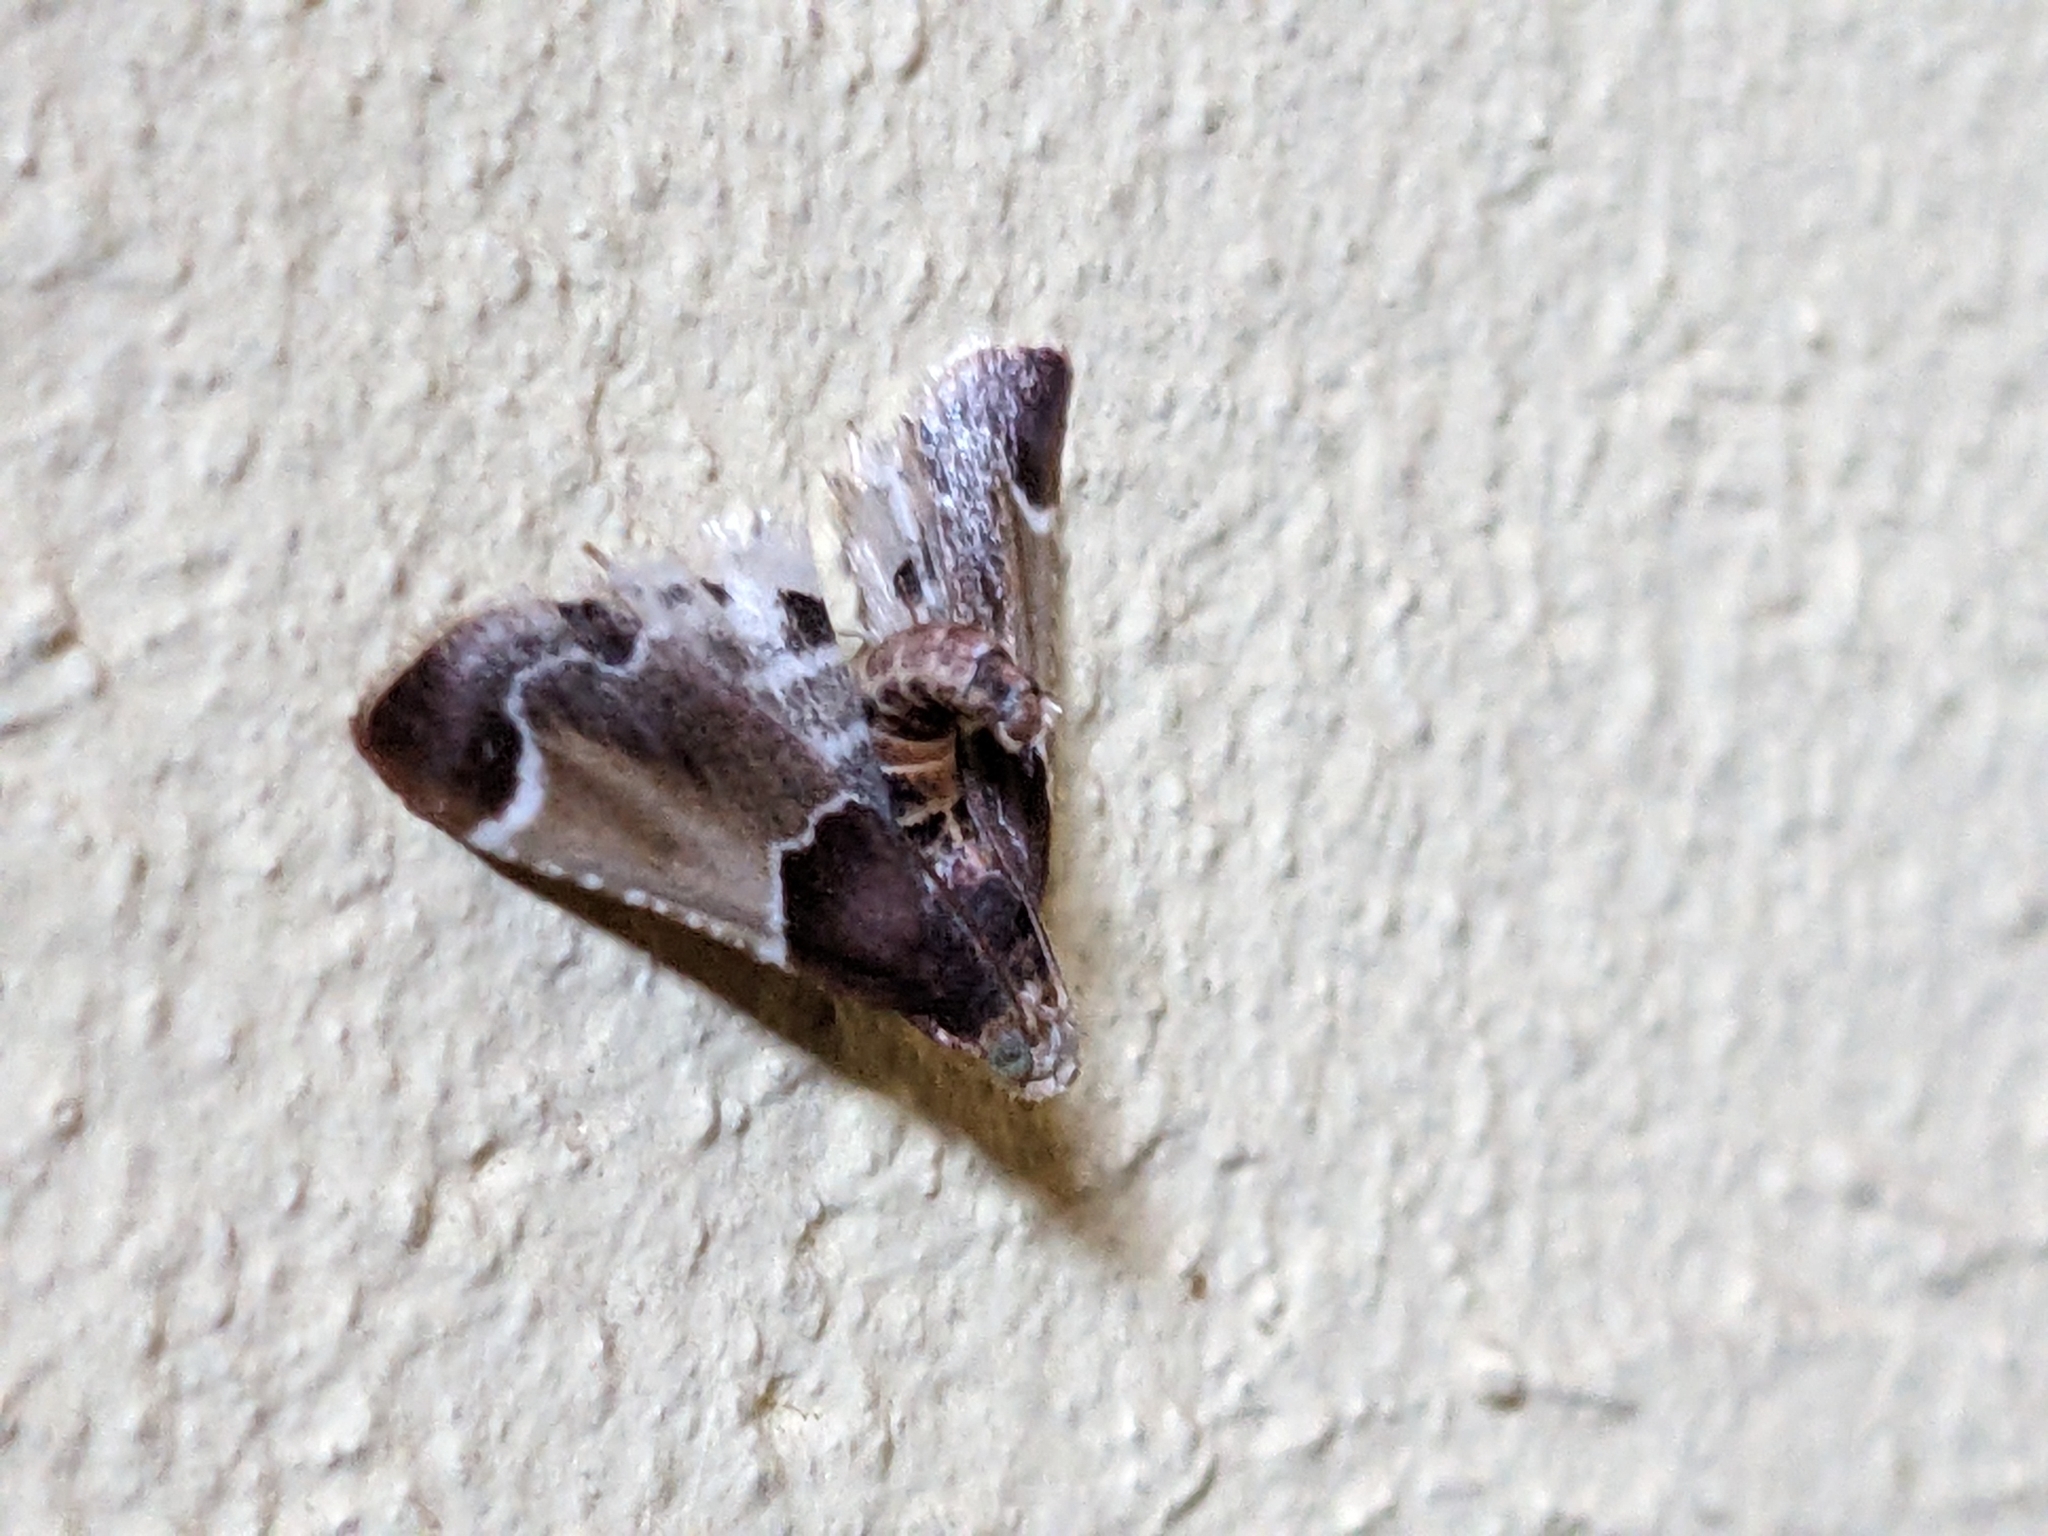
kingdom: Animalia
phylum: Arthropoda
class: Insecta
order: Lepidoptera
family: Pyralidae
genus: Pyralis
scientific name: Pyralis farinalis
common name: Meal moth
